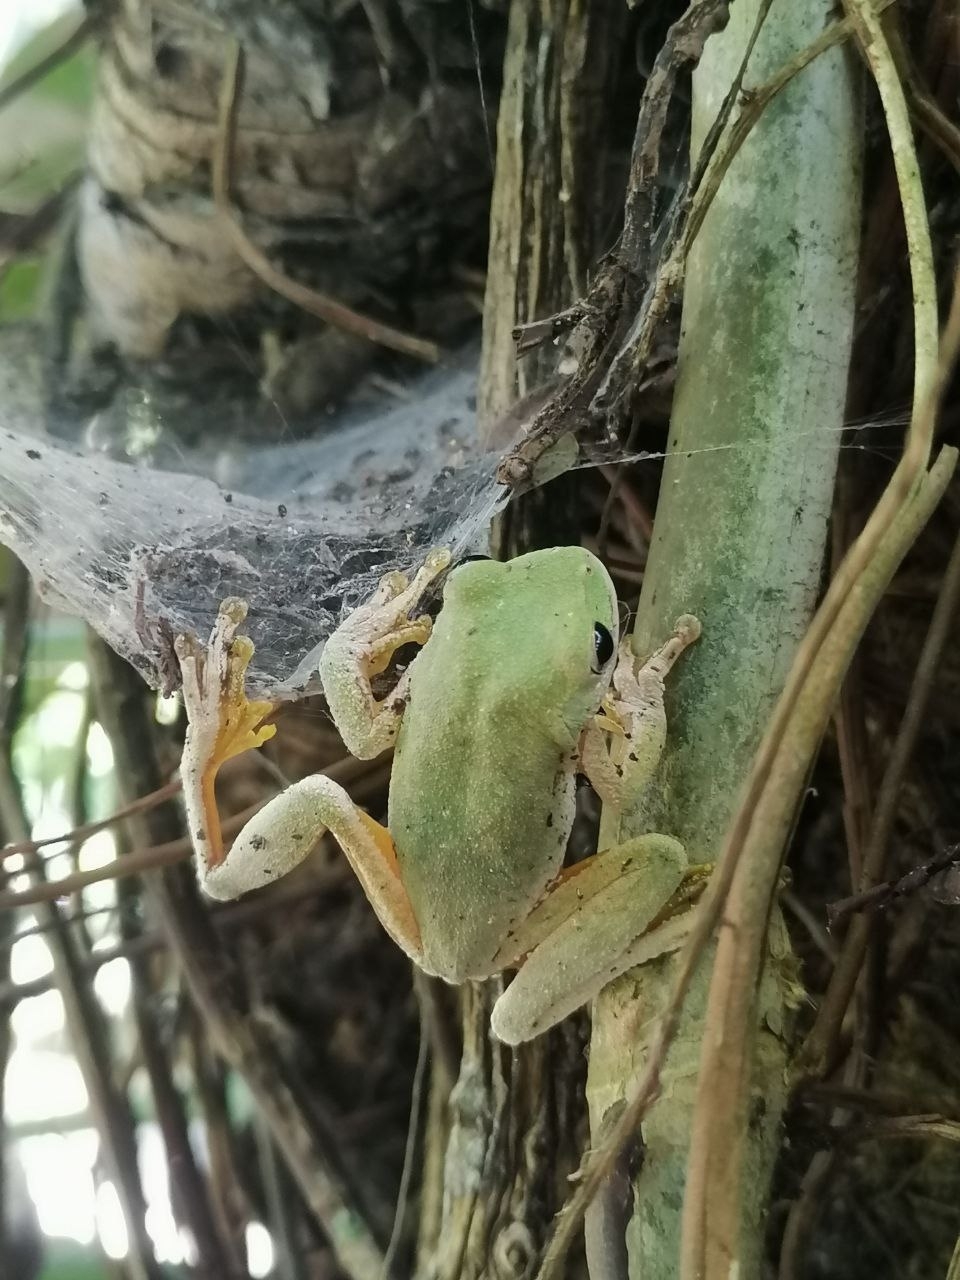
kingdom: Animalia
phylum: Chordata
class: Amphibia
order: Anura
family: Hylidae
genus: Rheohyla
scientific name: Rheohyla miotympanum
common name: Small-eard hyla
